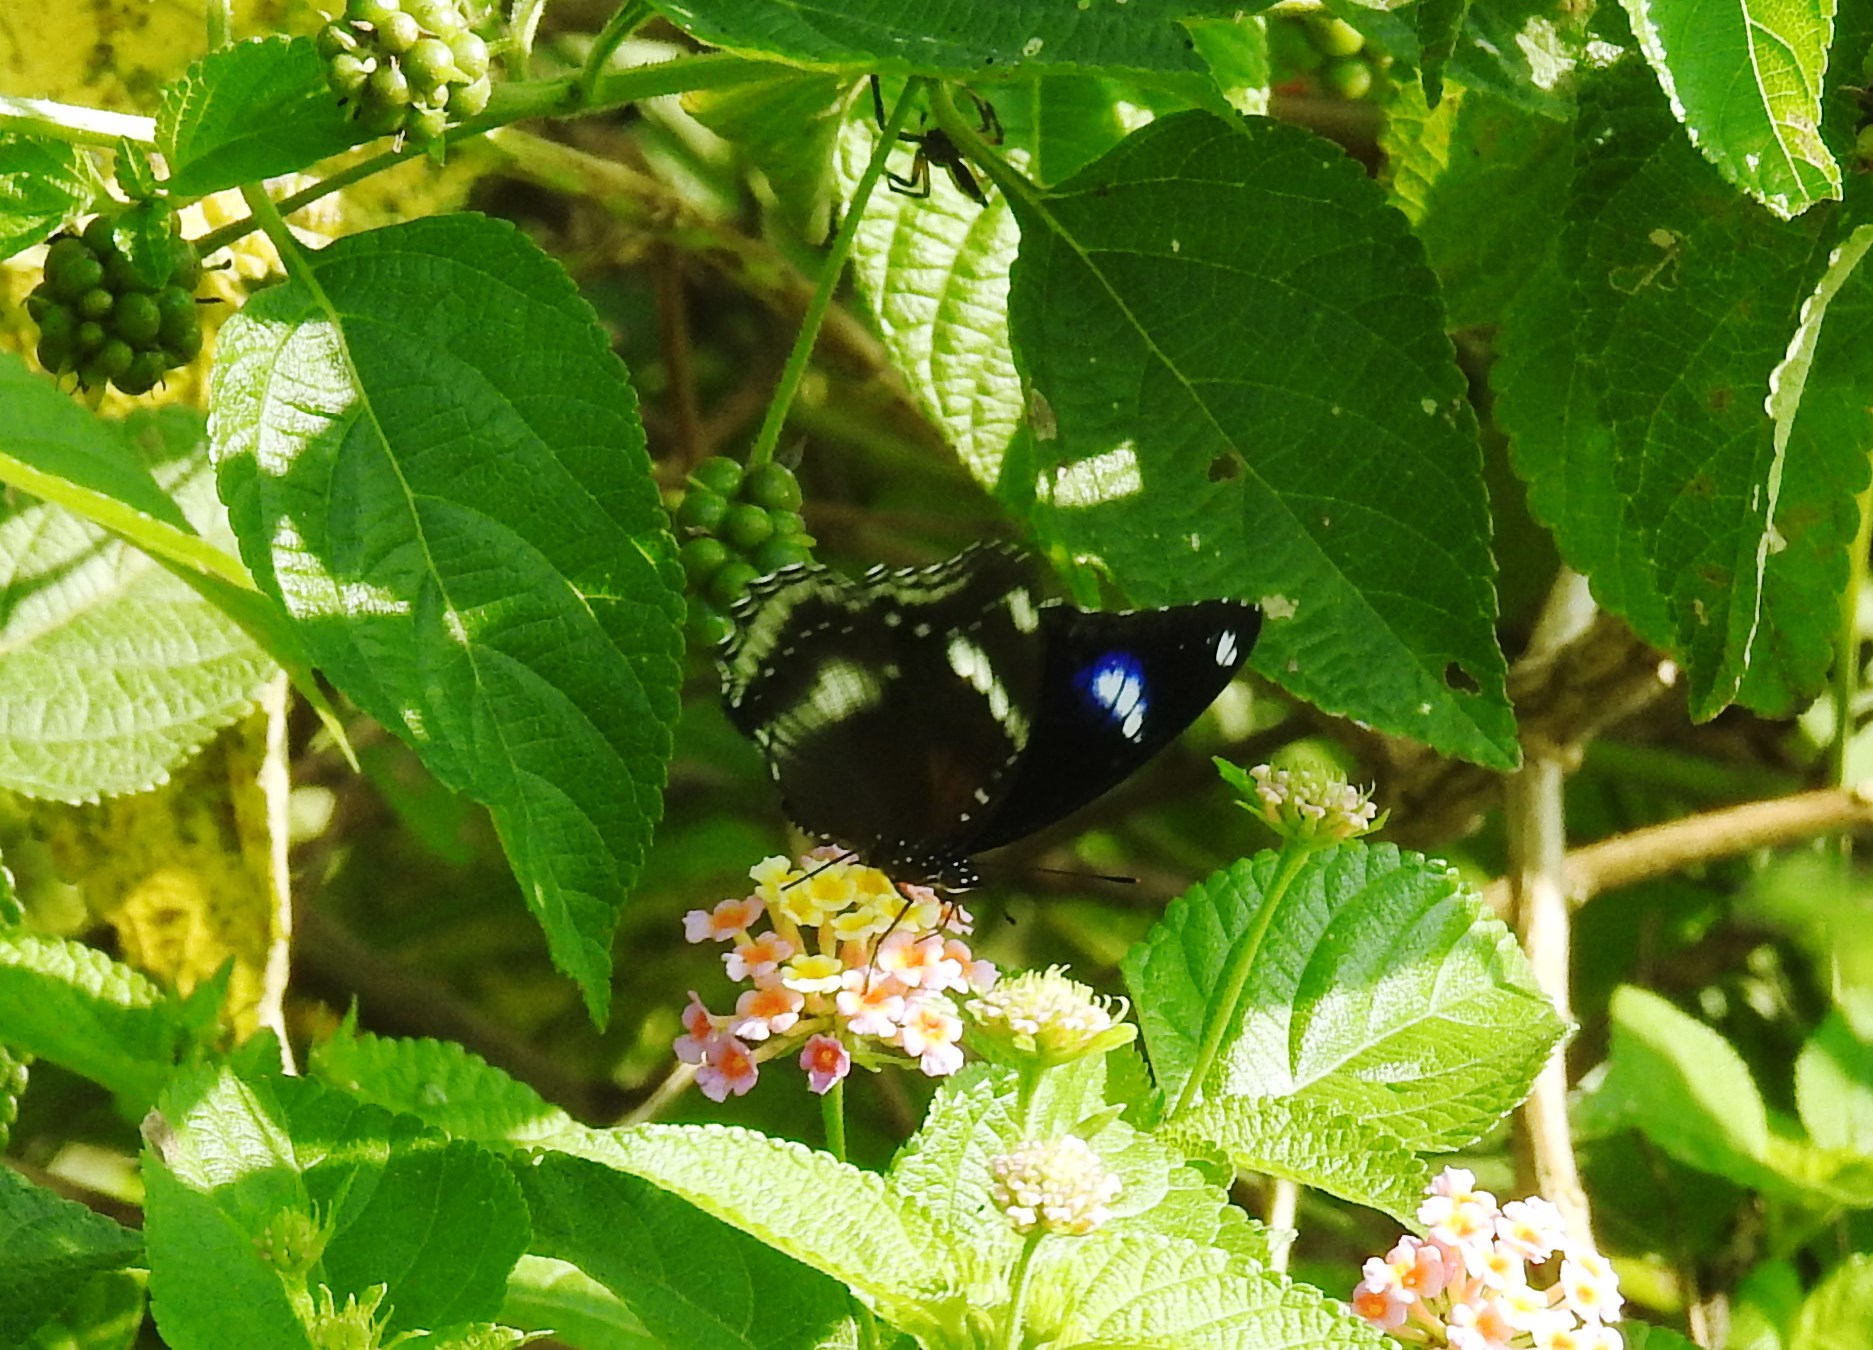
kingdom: Animalia
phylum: Arthropoda
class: Insecta
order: Lepidoptera
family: Nymphalidae
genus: Hypolimnas
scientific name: Hypolimnas bolina
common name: Great eggfly
